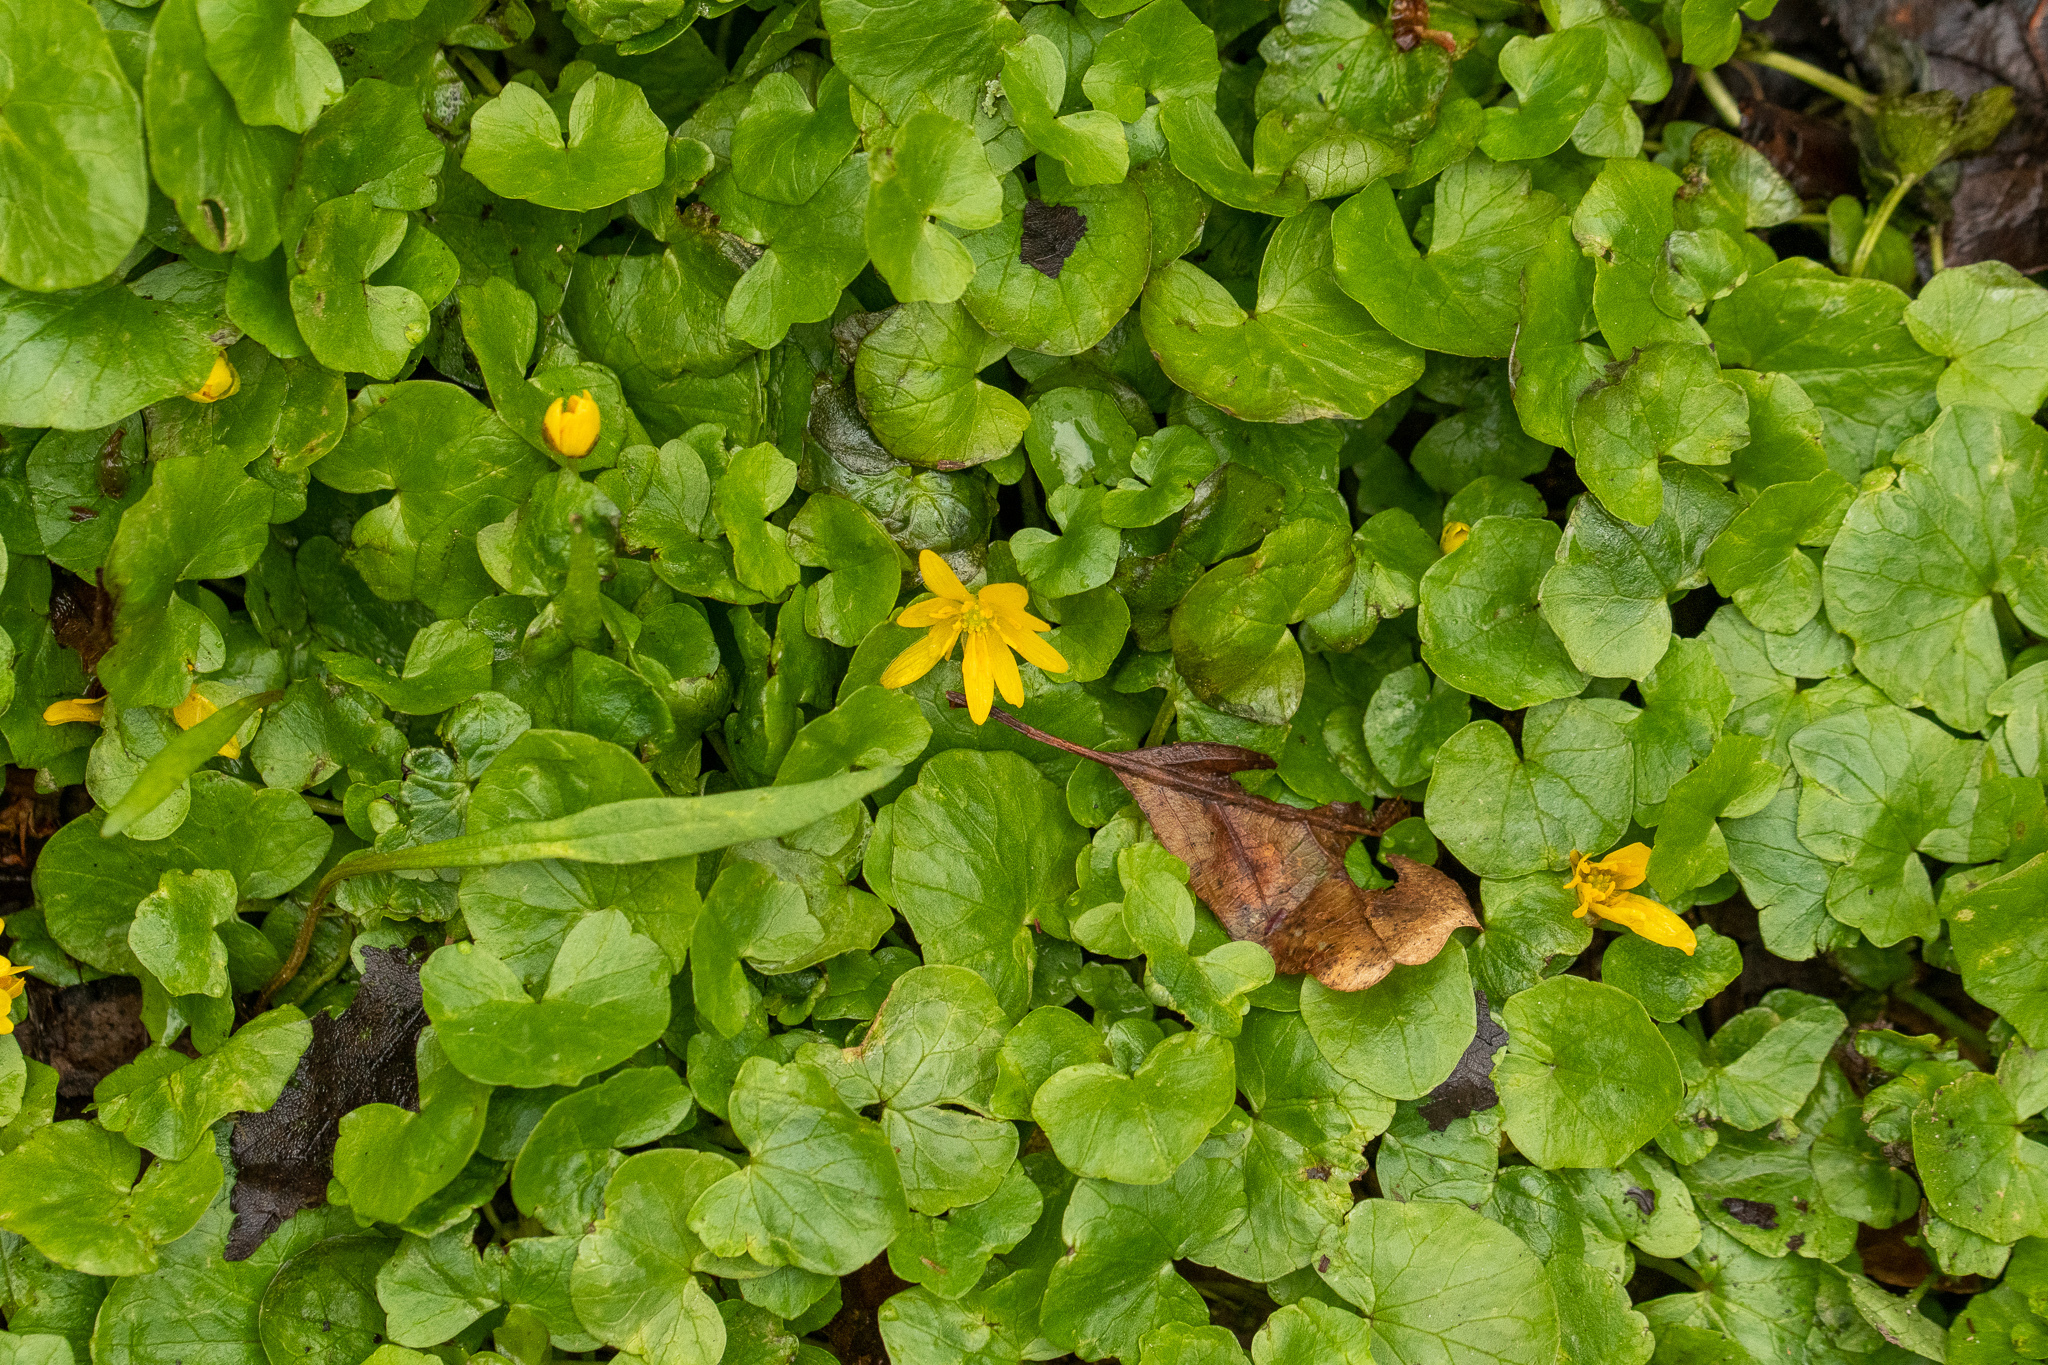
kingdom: Plantae
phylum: Tracheophyta
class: Magnoliopsida
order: Ranunculales
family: Ranunculaceae
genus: Ficaria
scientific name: Ficaria verna
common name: Lesser celandine
